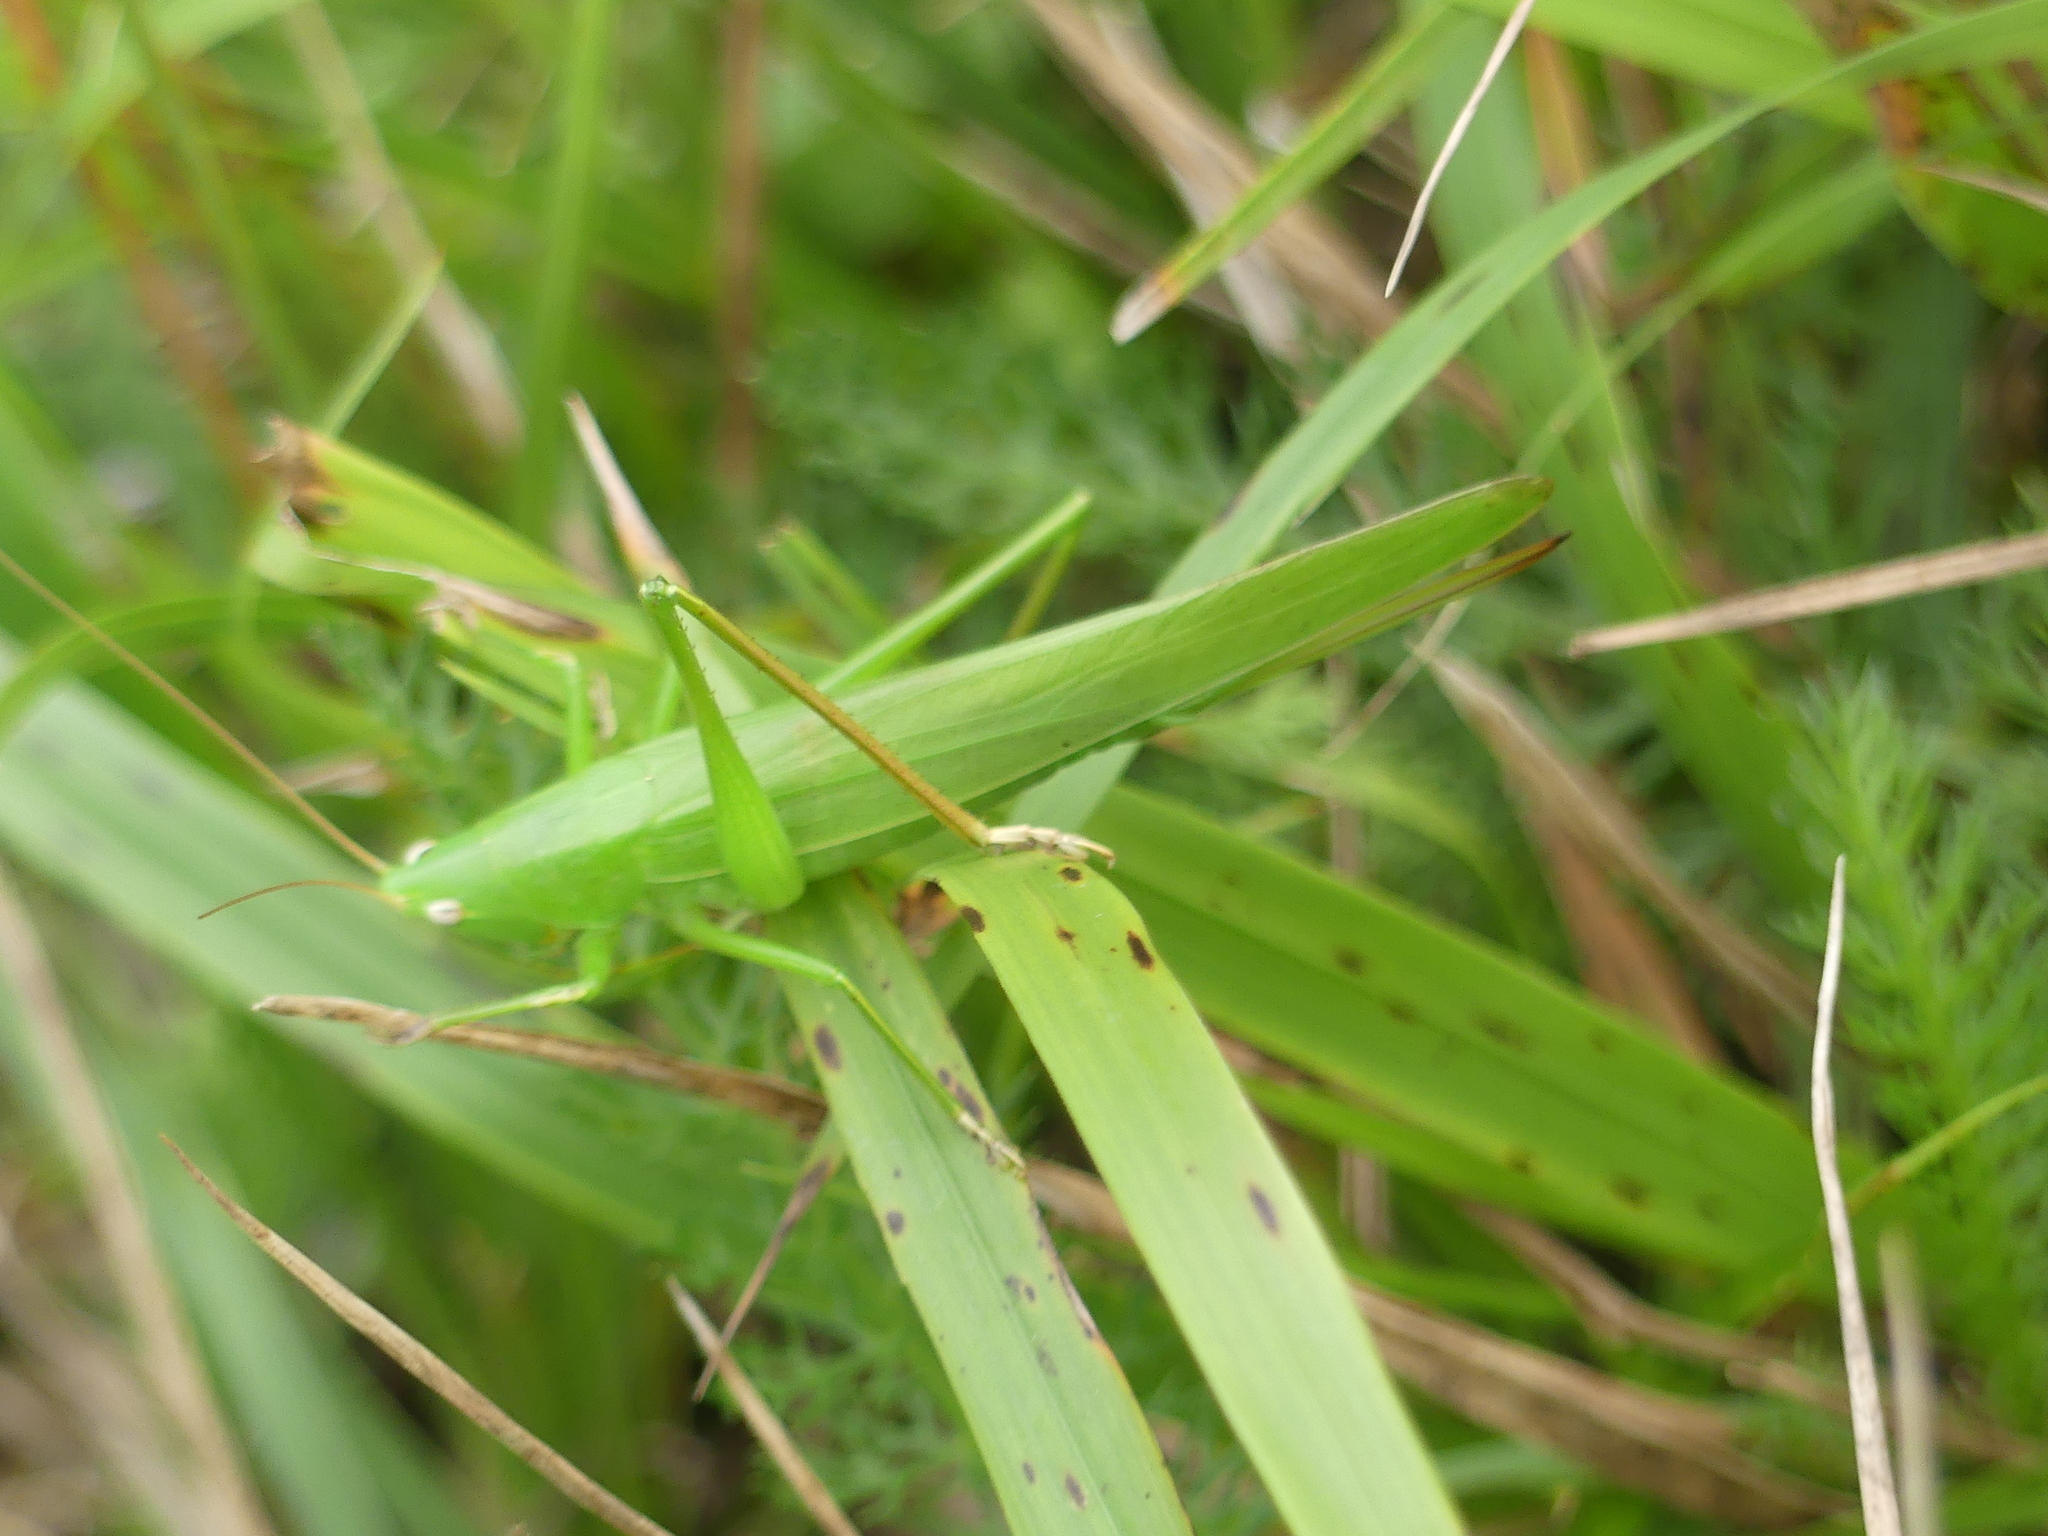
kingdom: Animalia
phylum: Arthropoda
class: Insecta
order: Orthoptera
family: Tettigoniidae
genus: Ruspolia
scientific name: Ruspolia nitidula
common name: Large conehead
